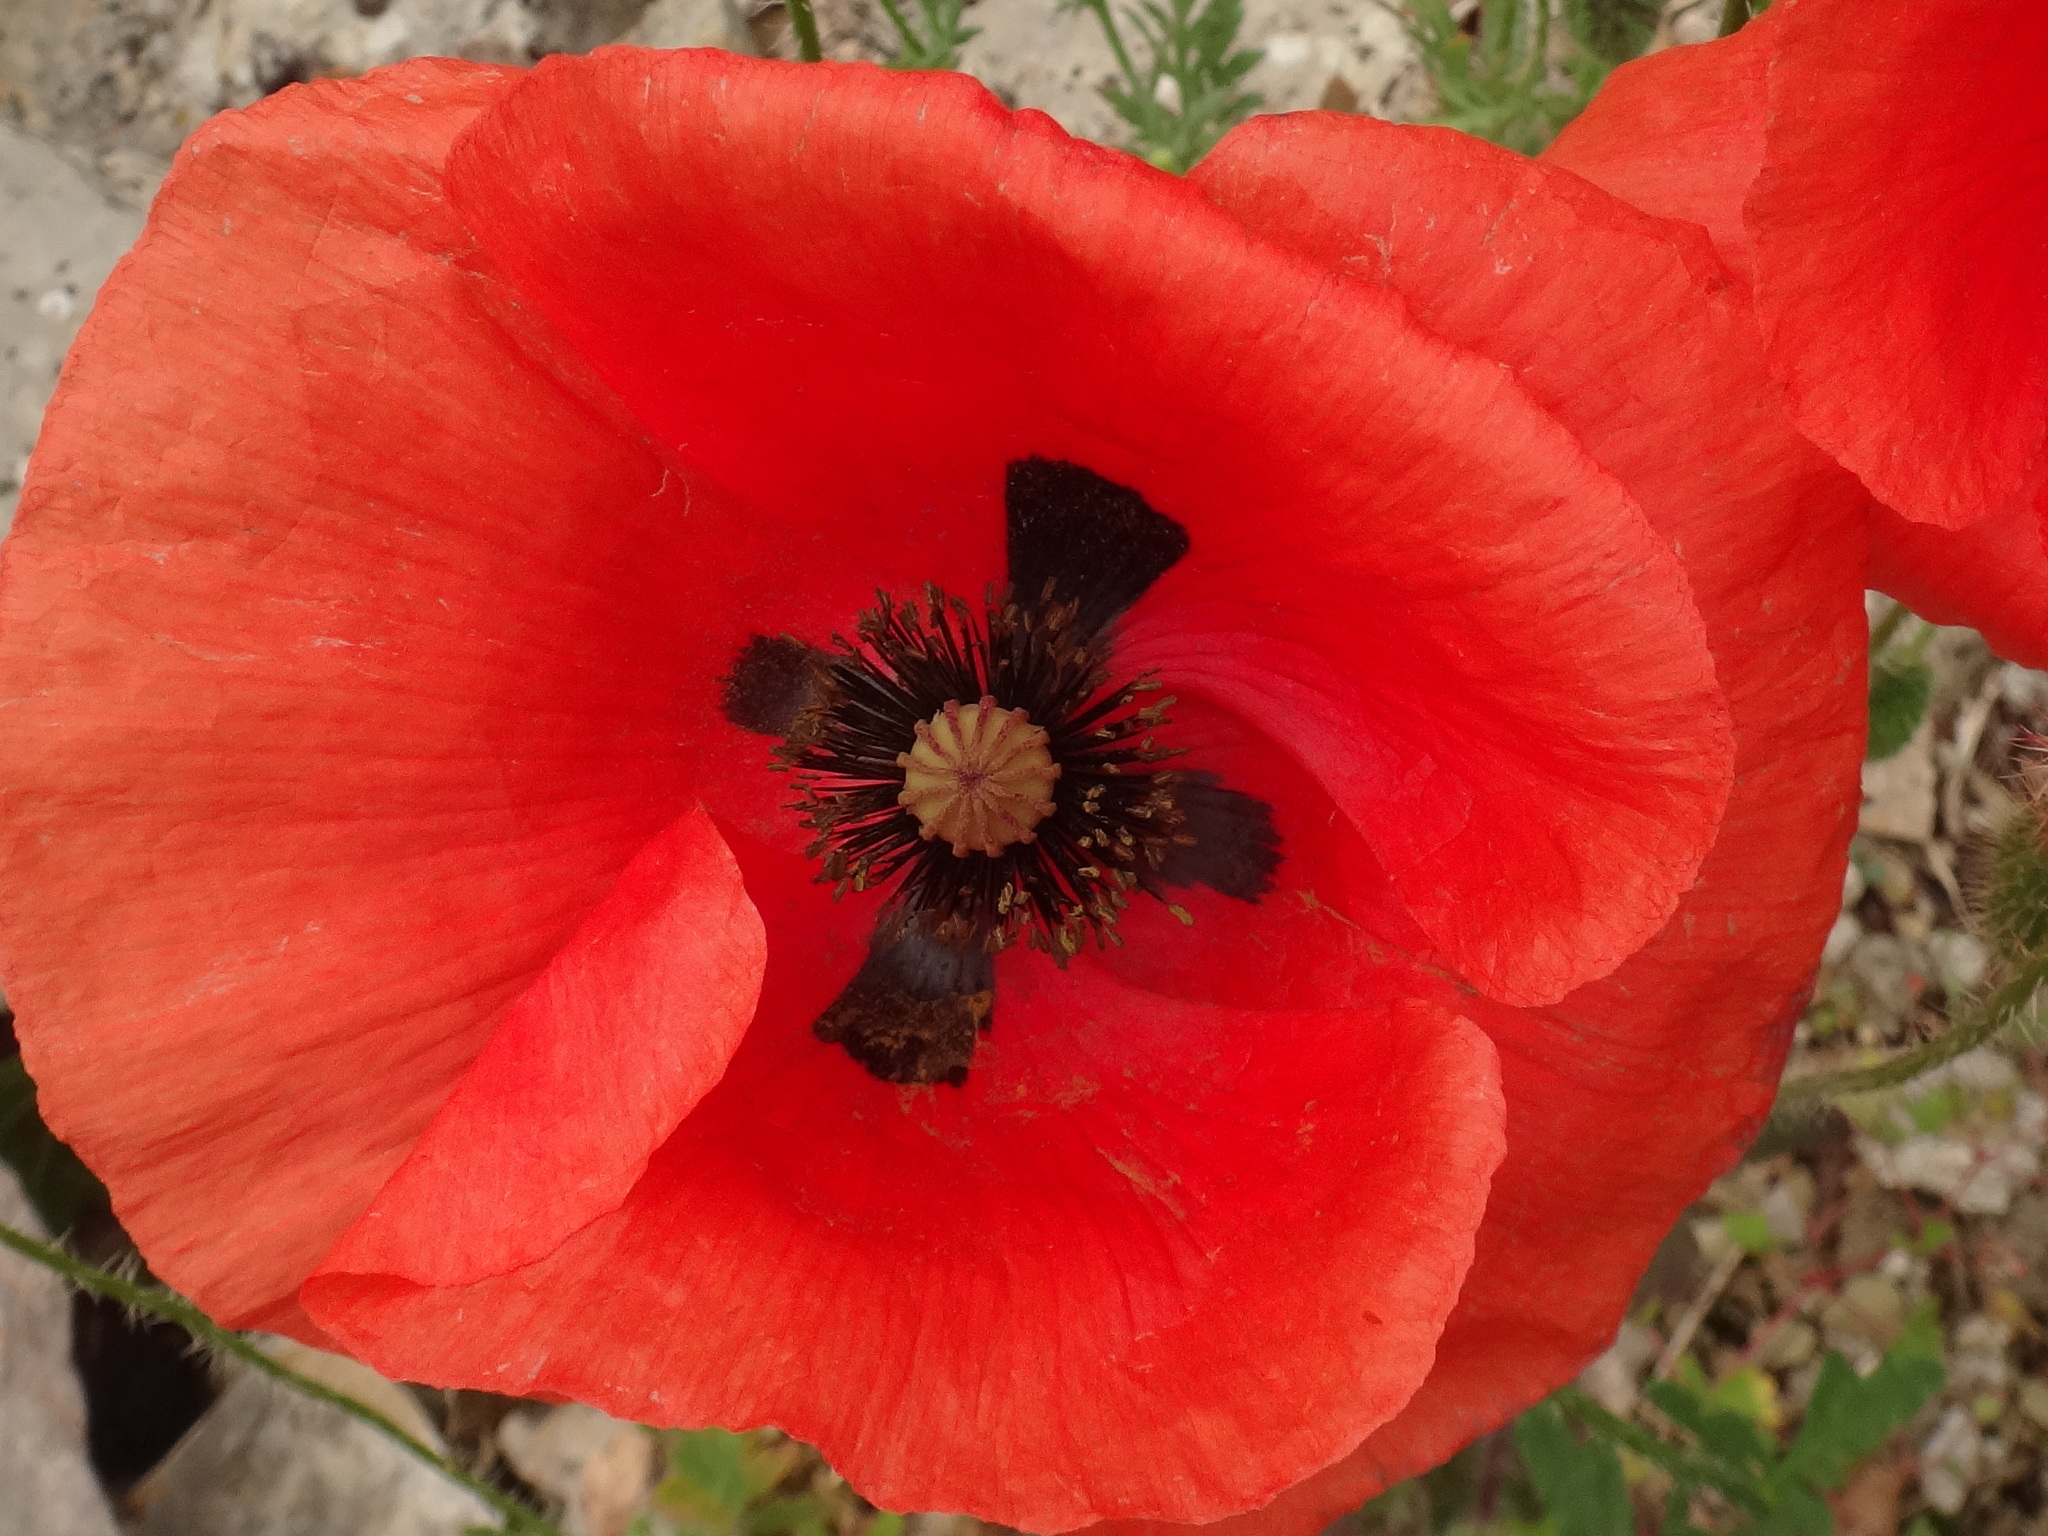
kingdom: Plantae
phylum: Tracheophyta
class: Magnoliopsida
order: Ranunculales
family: Papaveraceae
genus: Papaver
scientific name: Papaver rhoeas
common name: Corn poppy
